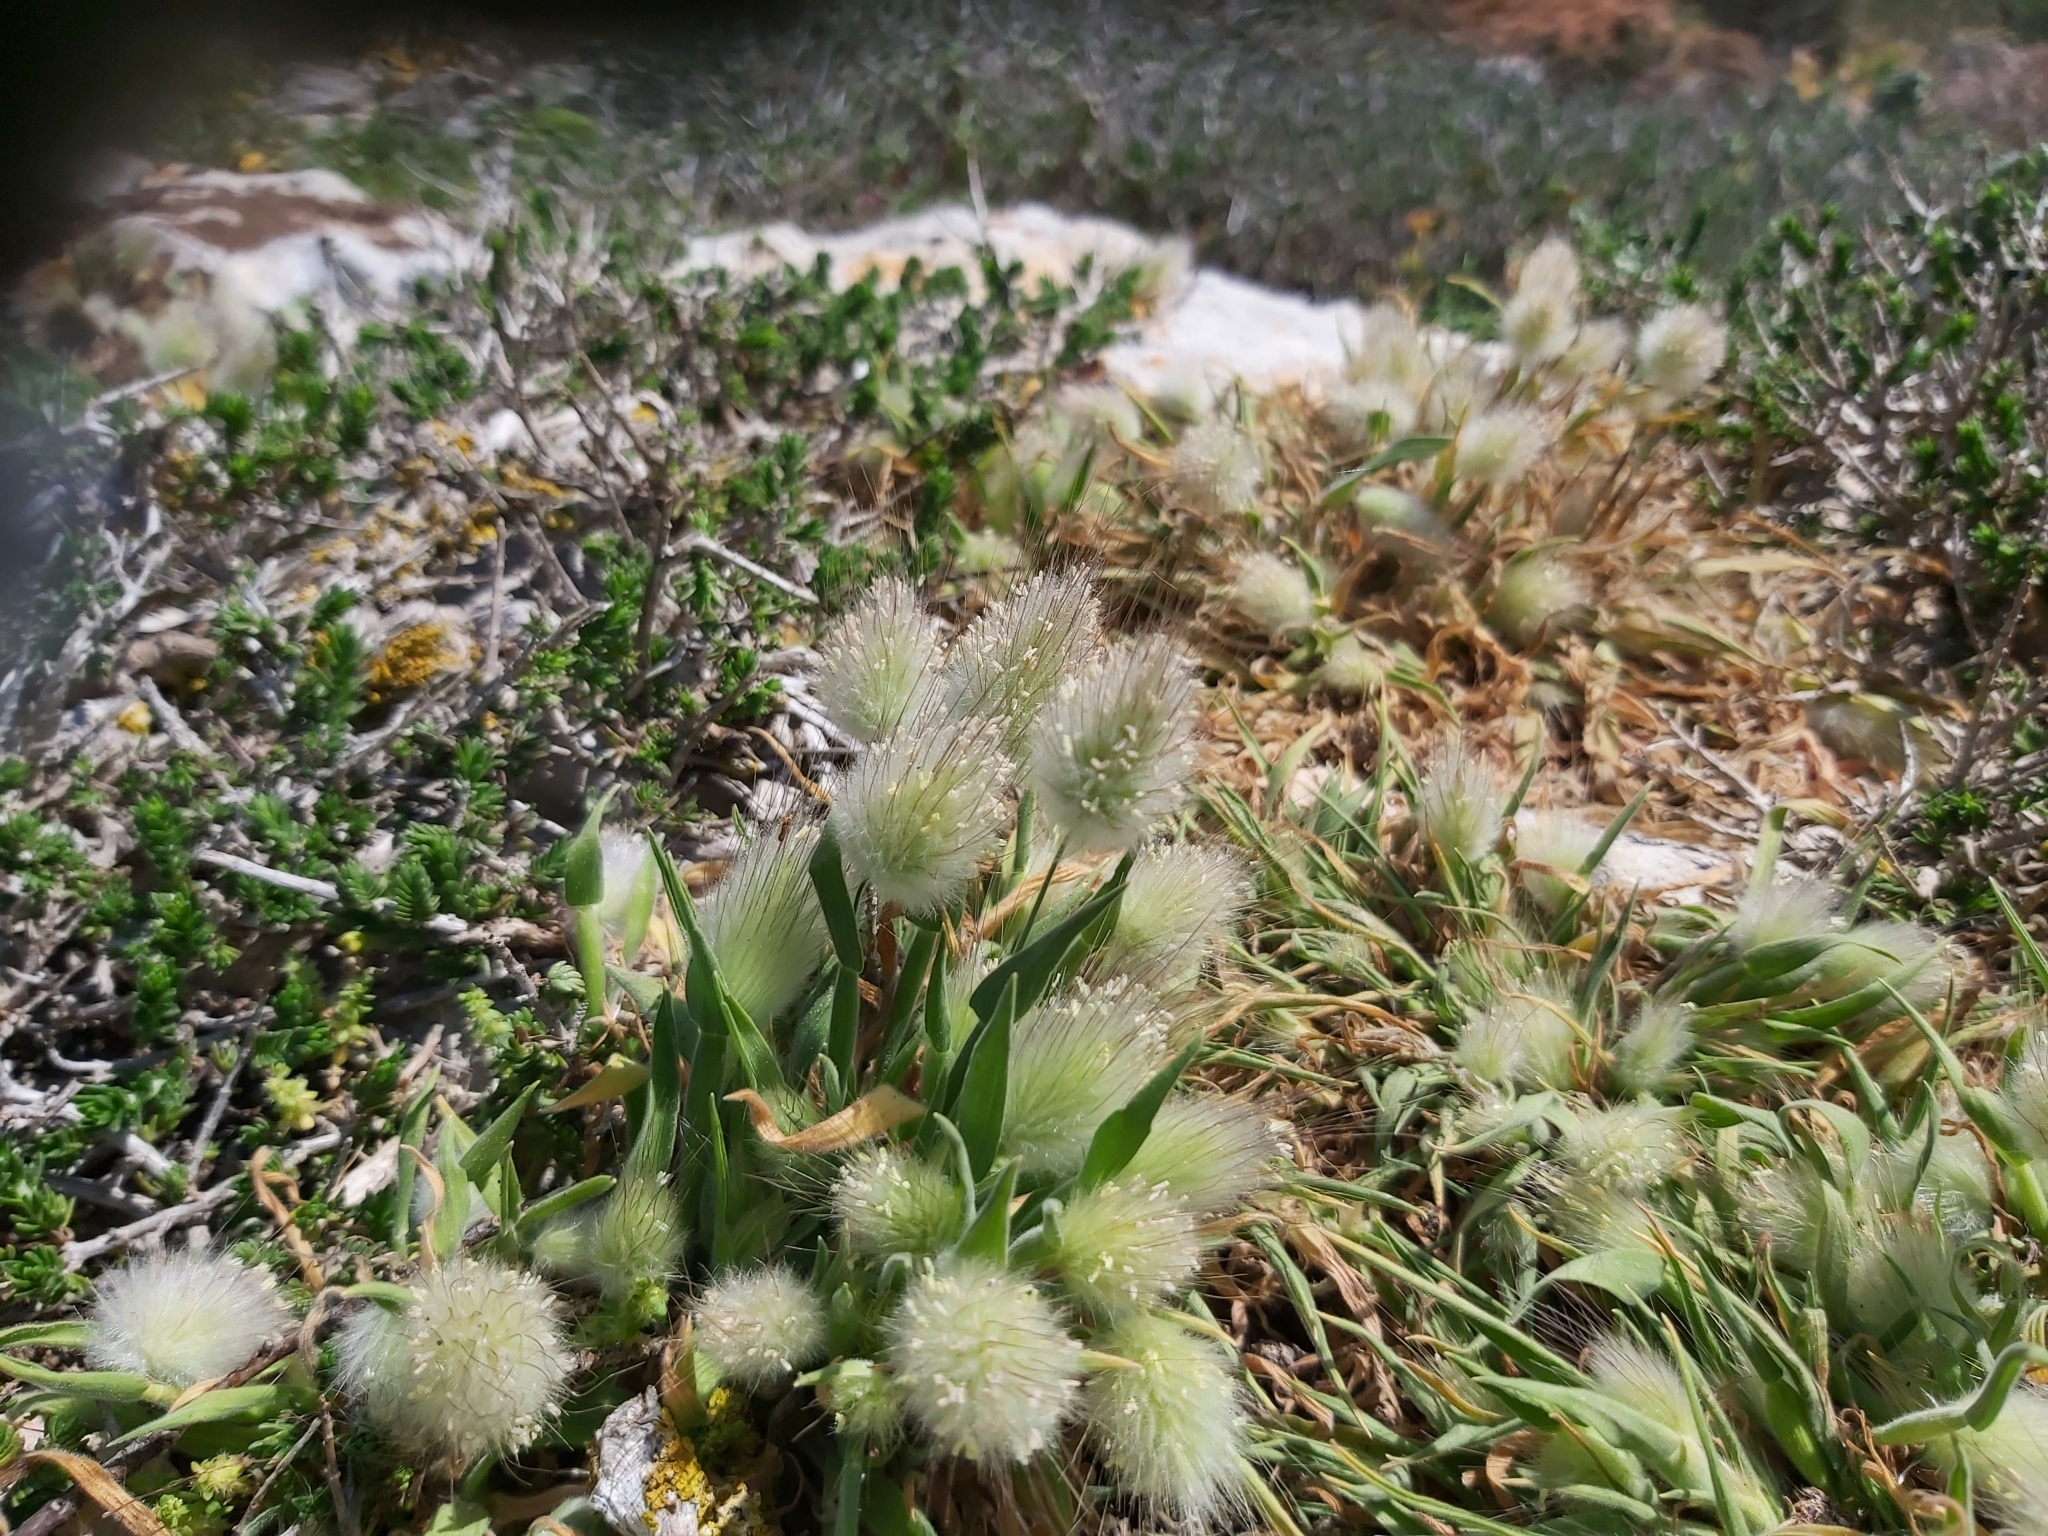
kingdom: Plantae
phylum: Tracheophyta
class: Liliopsida
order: Poales
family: Poaceae
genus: Lagurus
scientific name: Lagurus ovatus
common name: Hare's-tail
